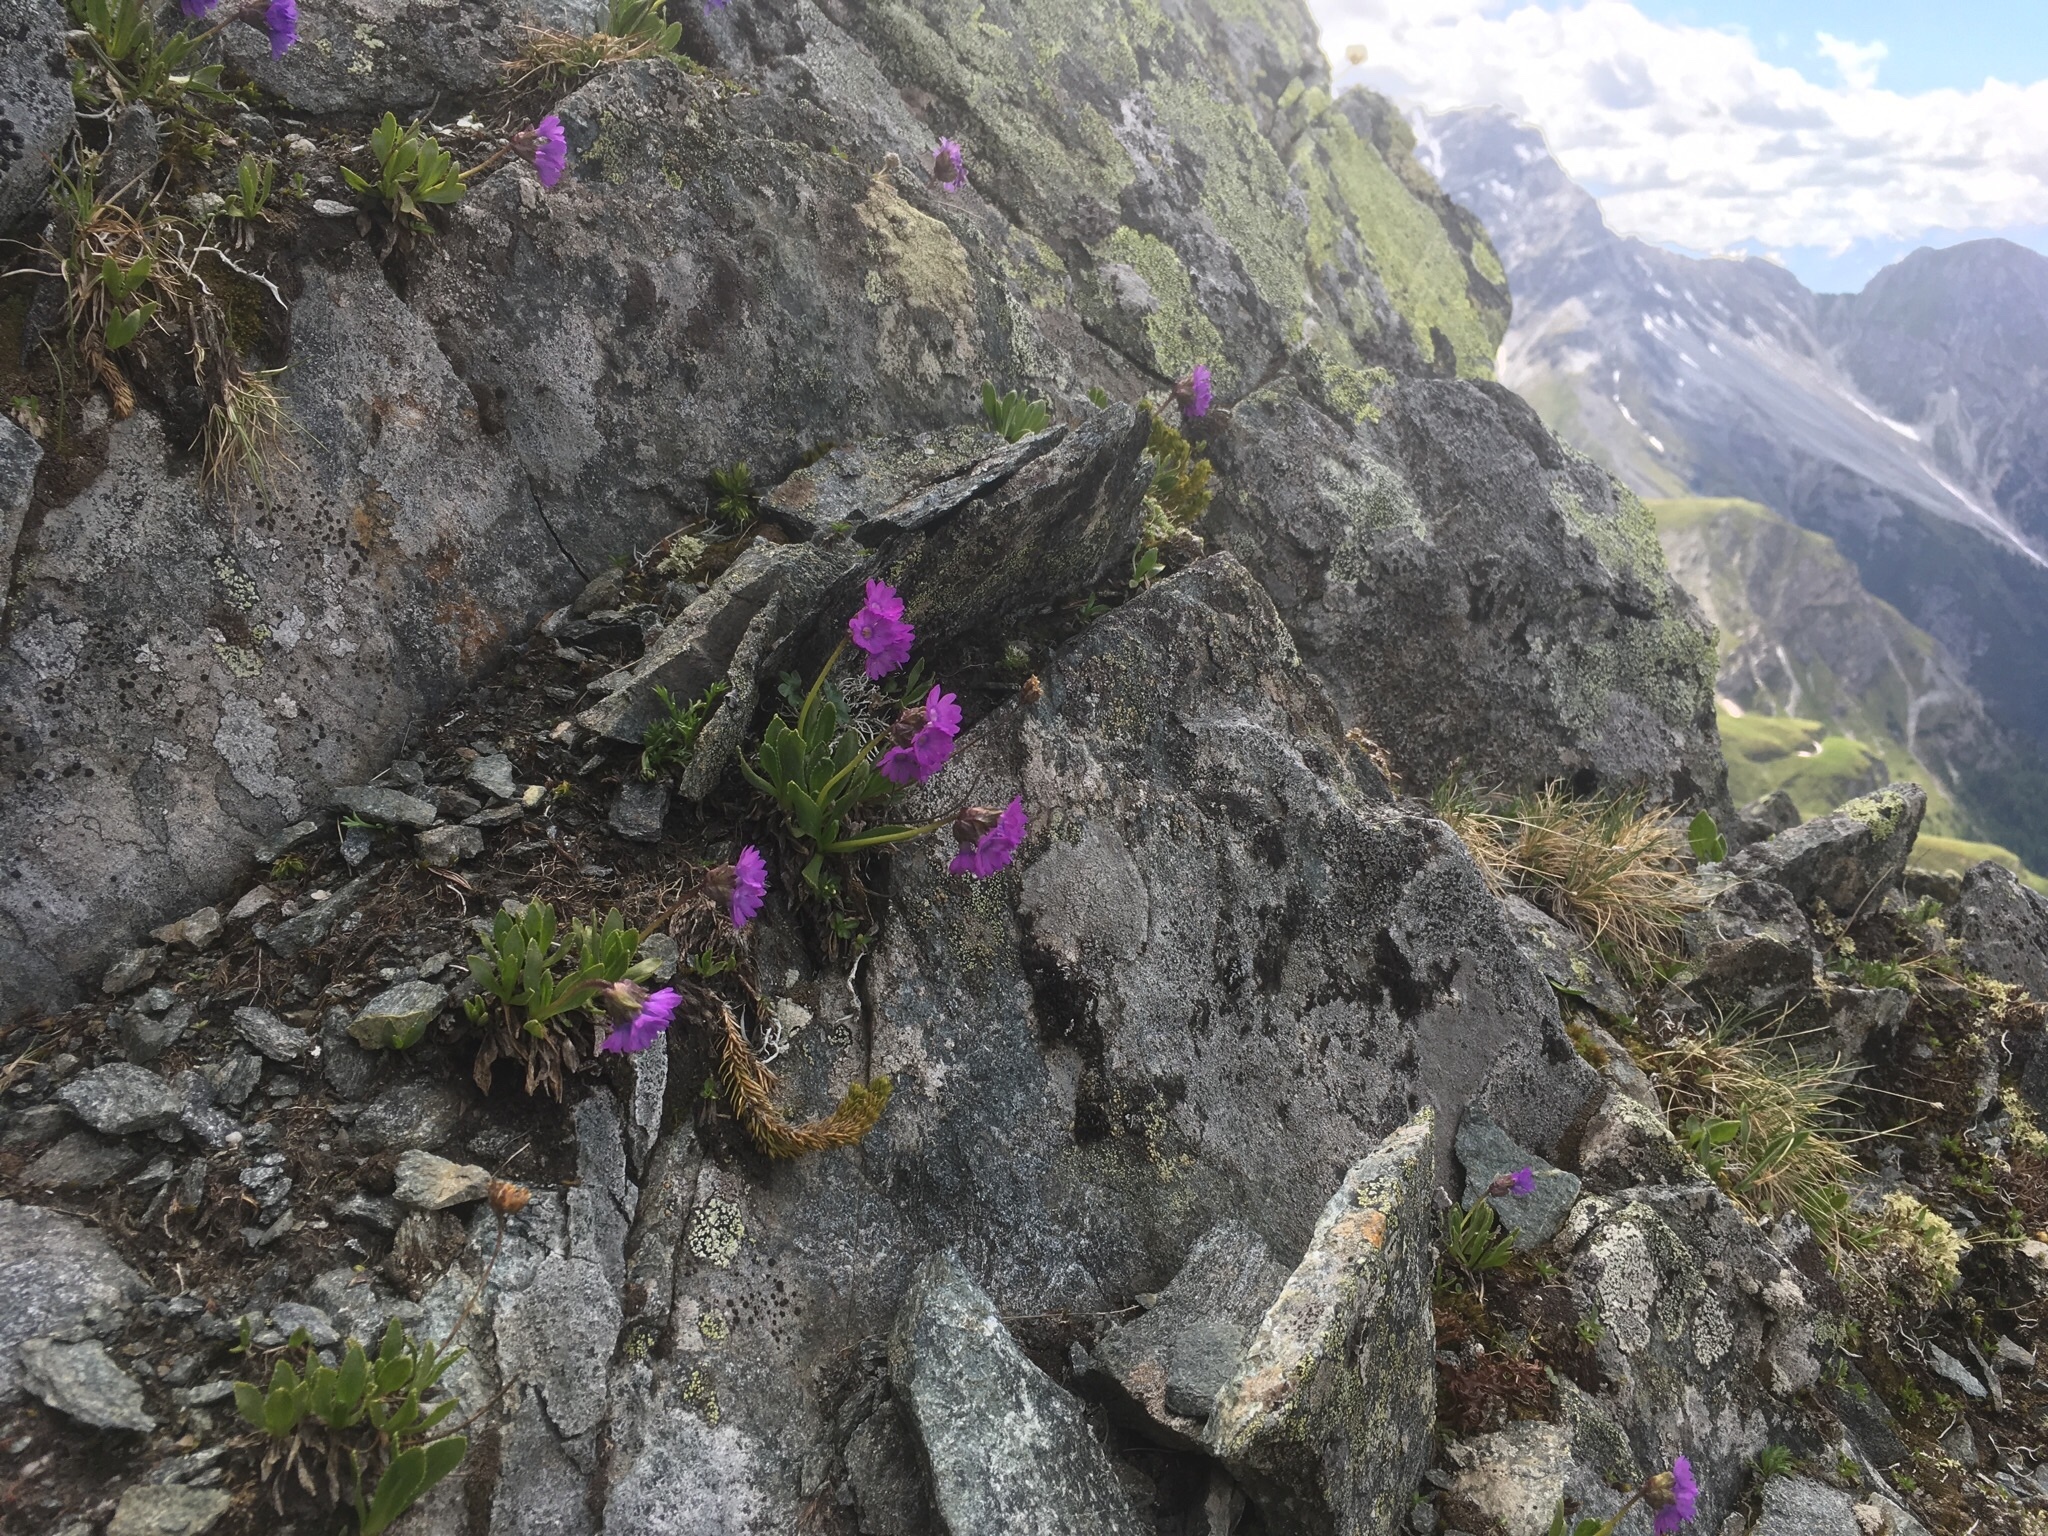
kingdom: Plantae
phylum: Tracheophyta
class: Magnoliopsida
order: Ericales
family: Primulaceae
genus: Primula
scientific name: Primula glutinosa
